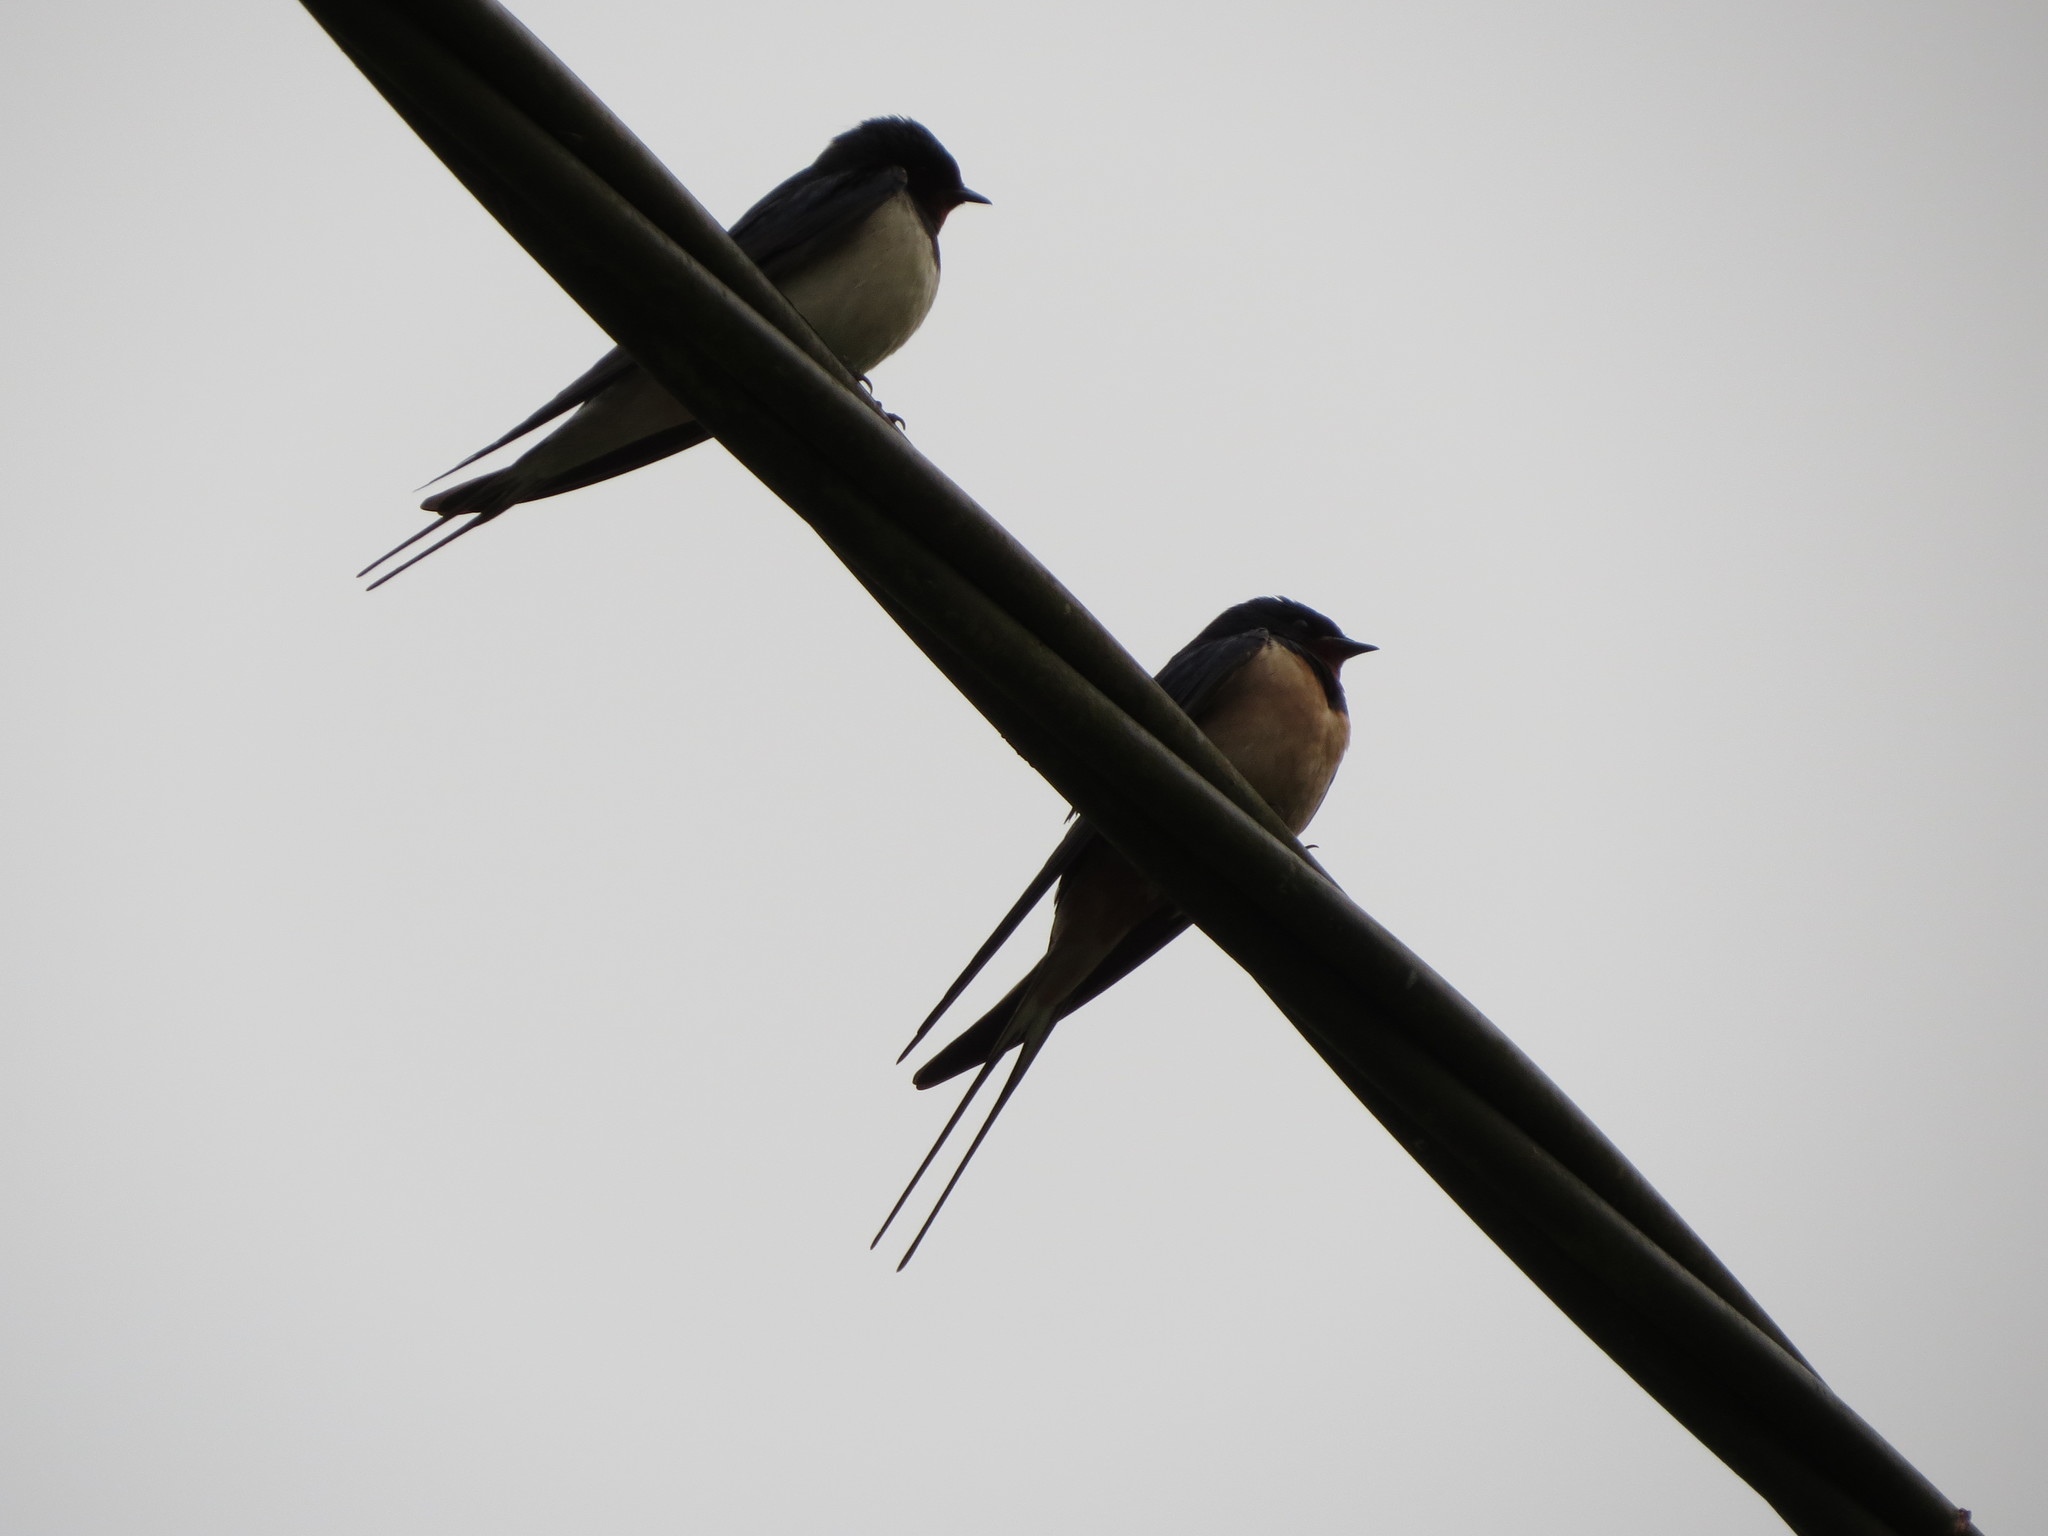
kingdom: Animalia
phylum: Chordata
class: Aves
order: Passeriformes
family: Hirundinidae
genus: Hirundo
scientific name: Hirundo rustica
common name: Barn swallow
